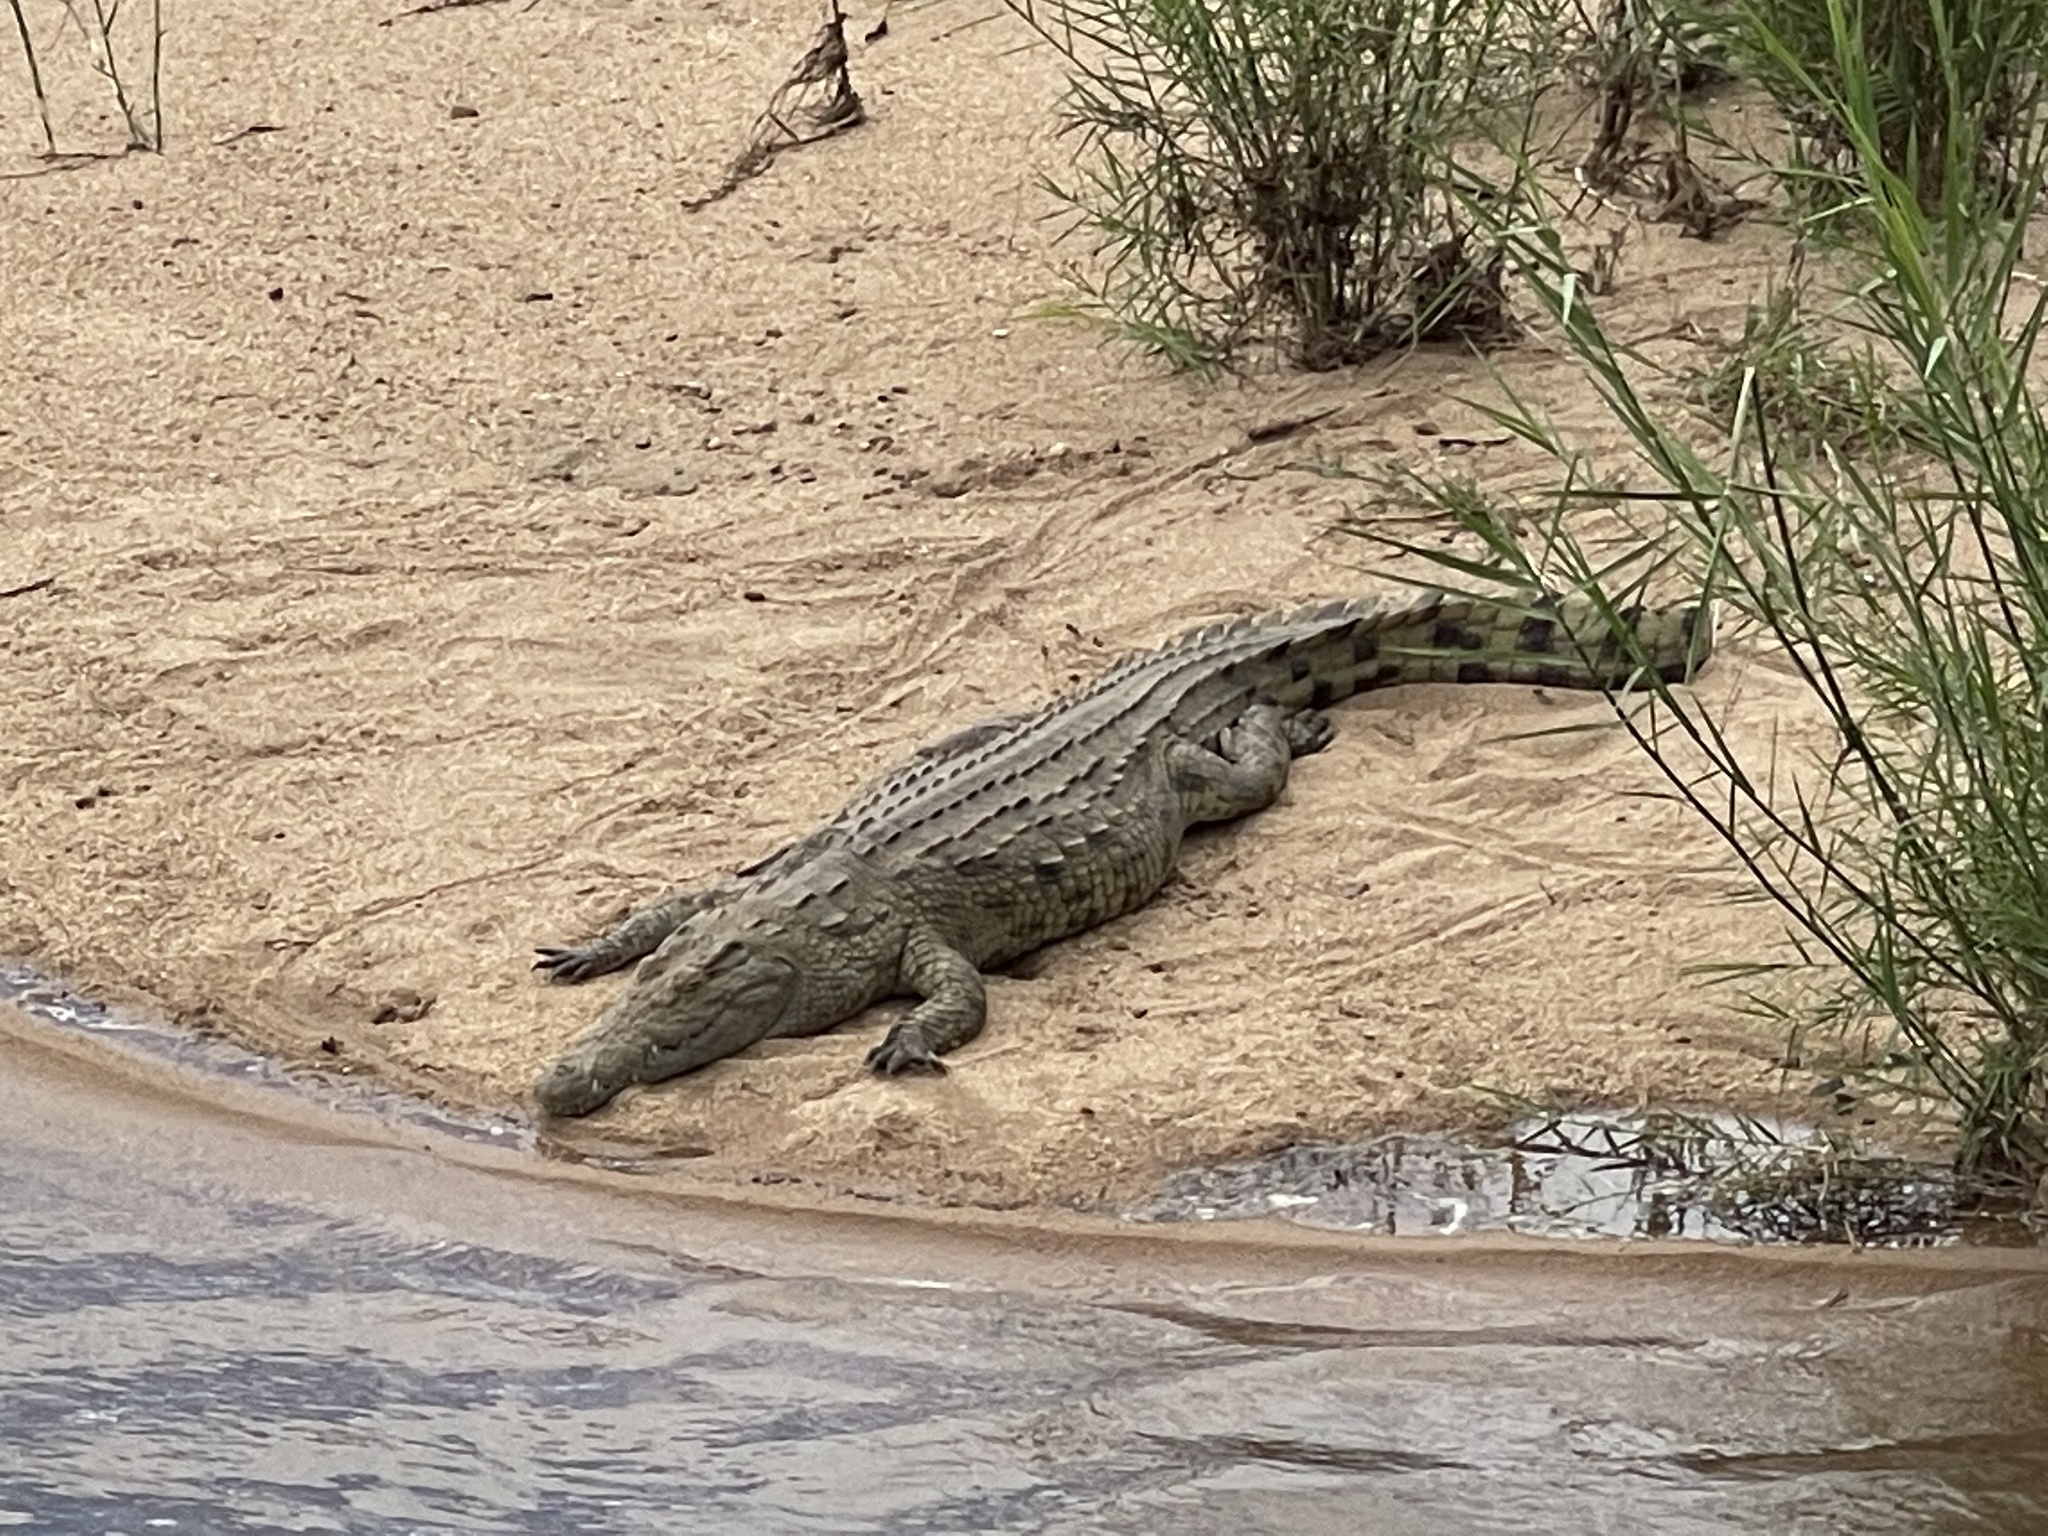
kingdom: Animalia
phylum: Chordata
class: Crocodylia
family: Crocodylidae
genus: Crocodylus
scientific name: Crocodylus niloticus
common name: Nile crocodile
